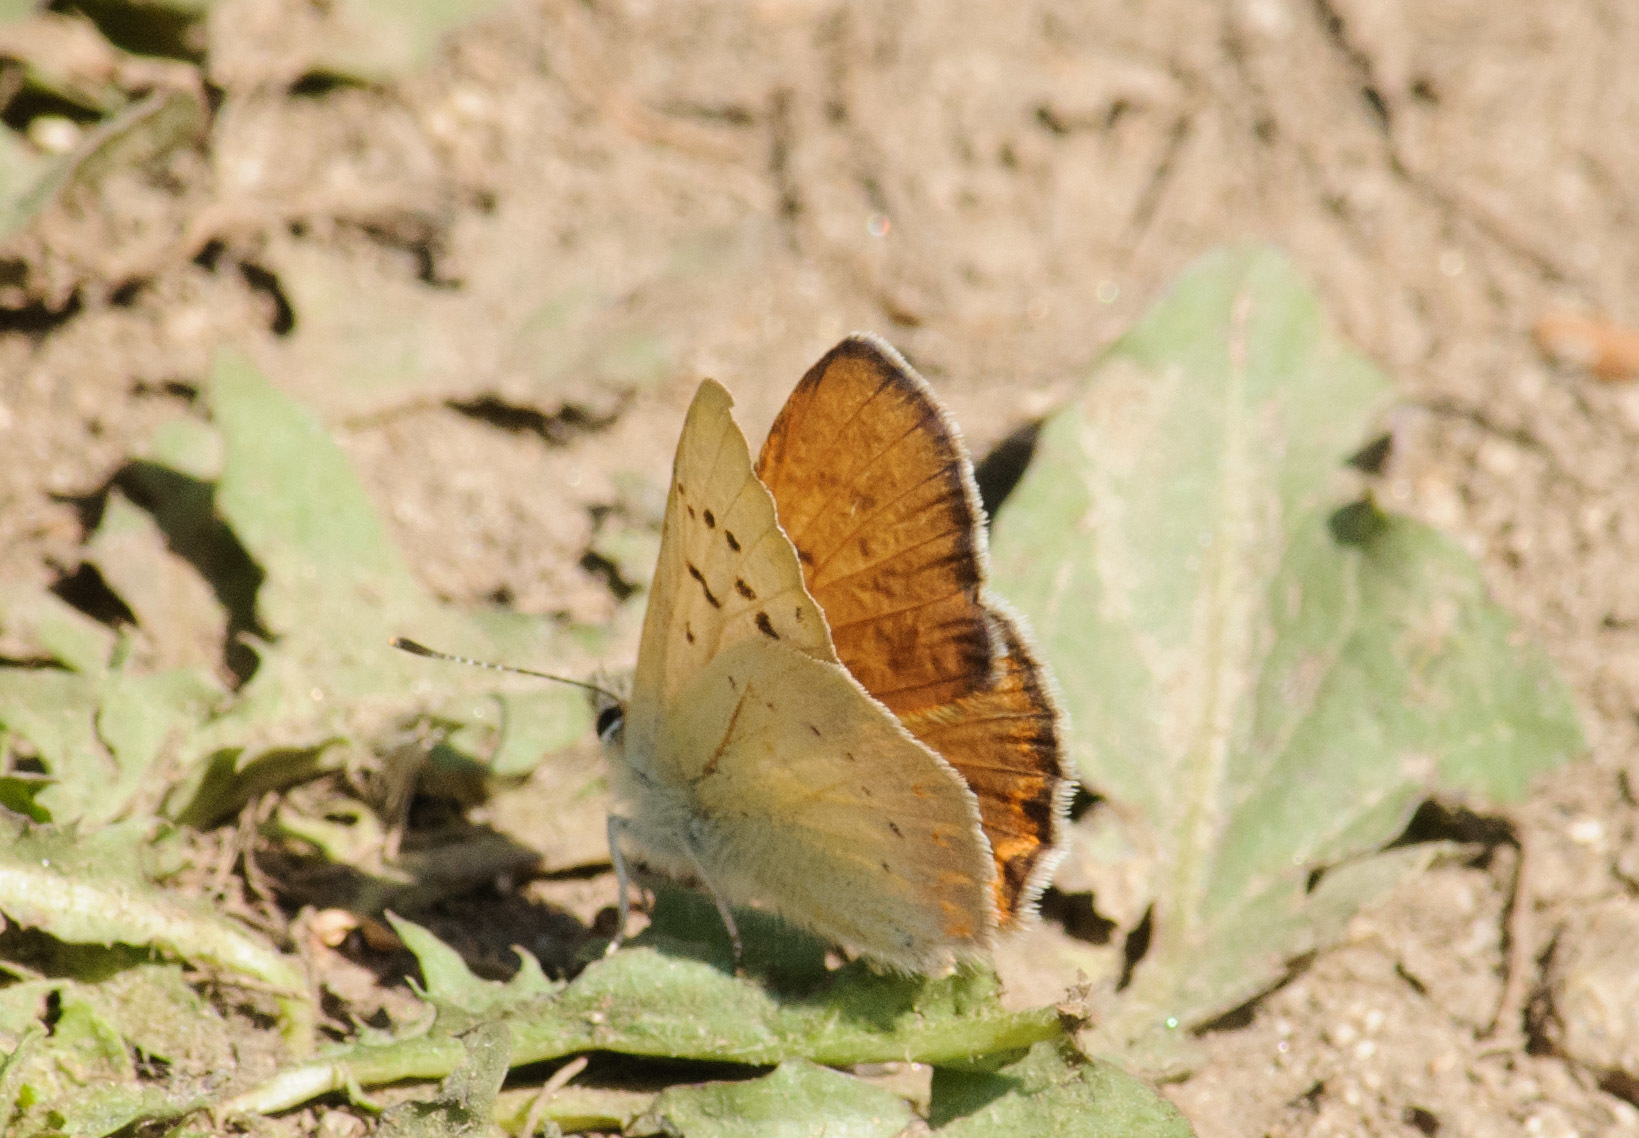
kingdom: Animalia
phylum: Arthropoda
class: Insecta
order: Lepidoptera
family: Lycaenidae
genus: Tharsalea
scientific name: Tharsalea nivalis
